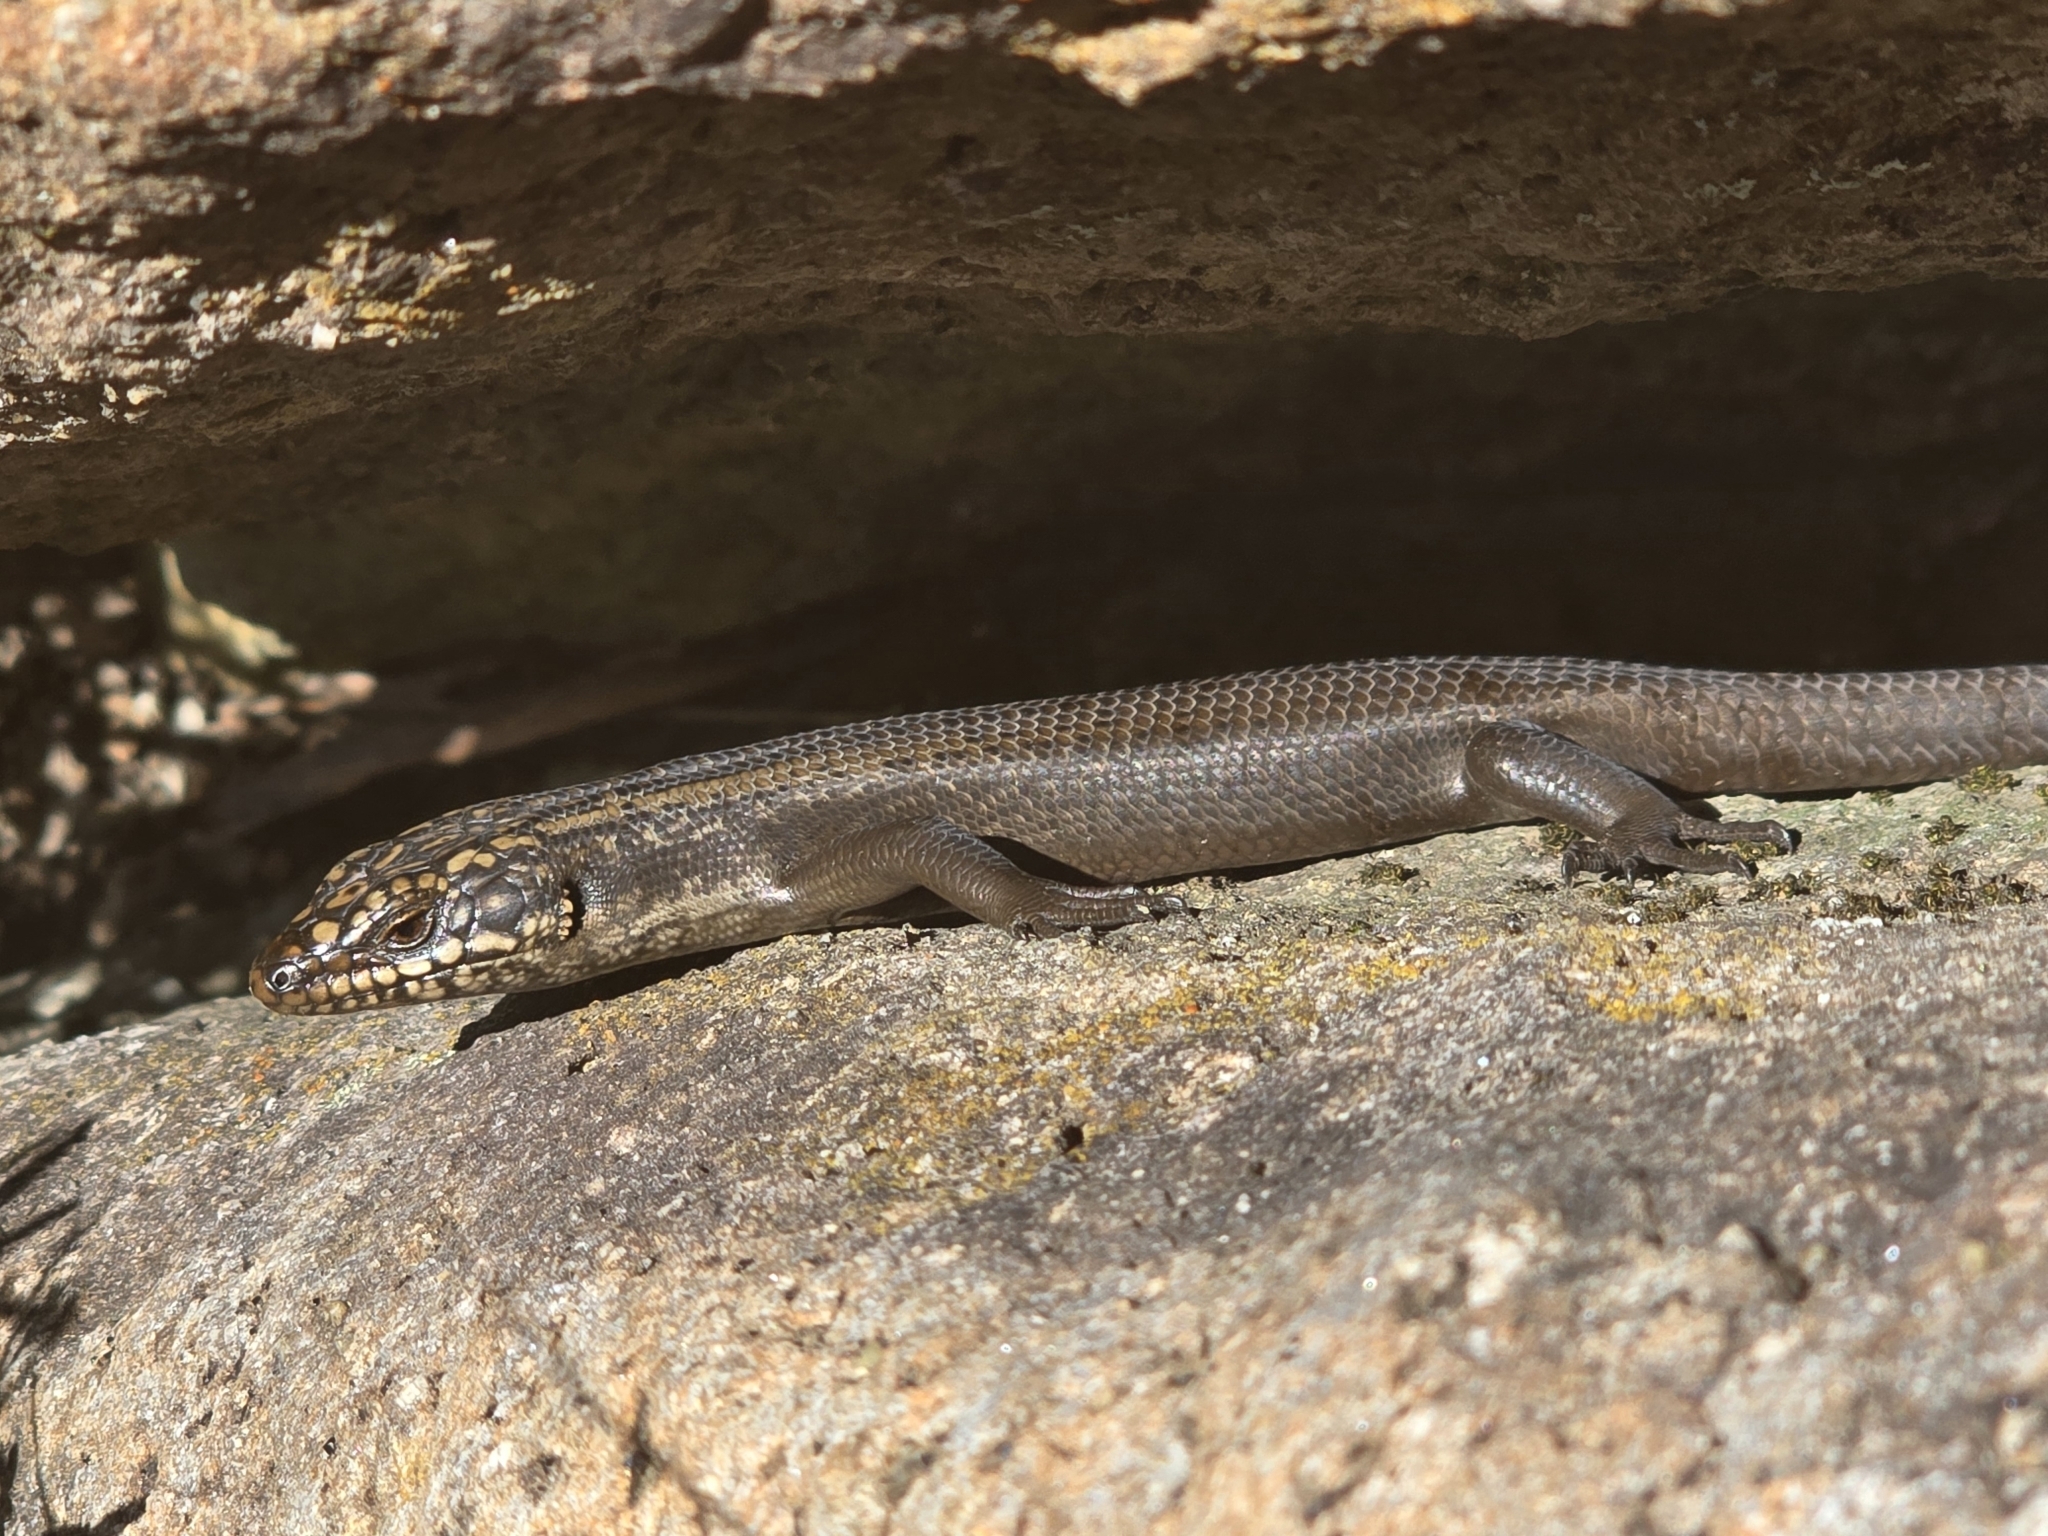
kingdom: Animalia
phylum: Chordata
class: Squamata
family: Scincidae
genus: Egernia
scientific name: Egernia roomi
